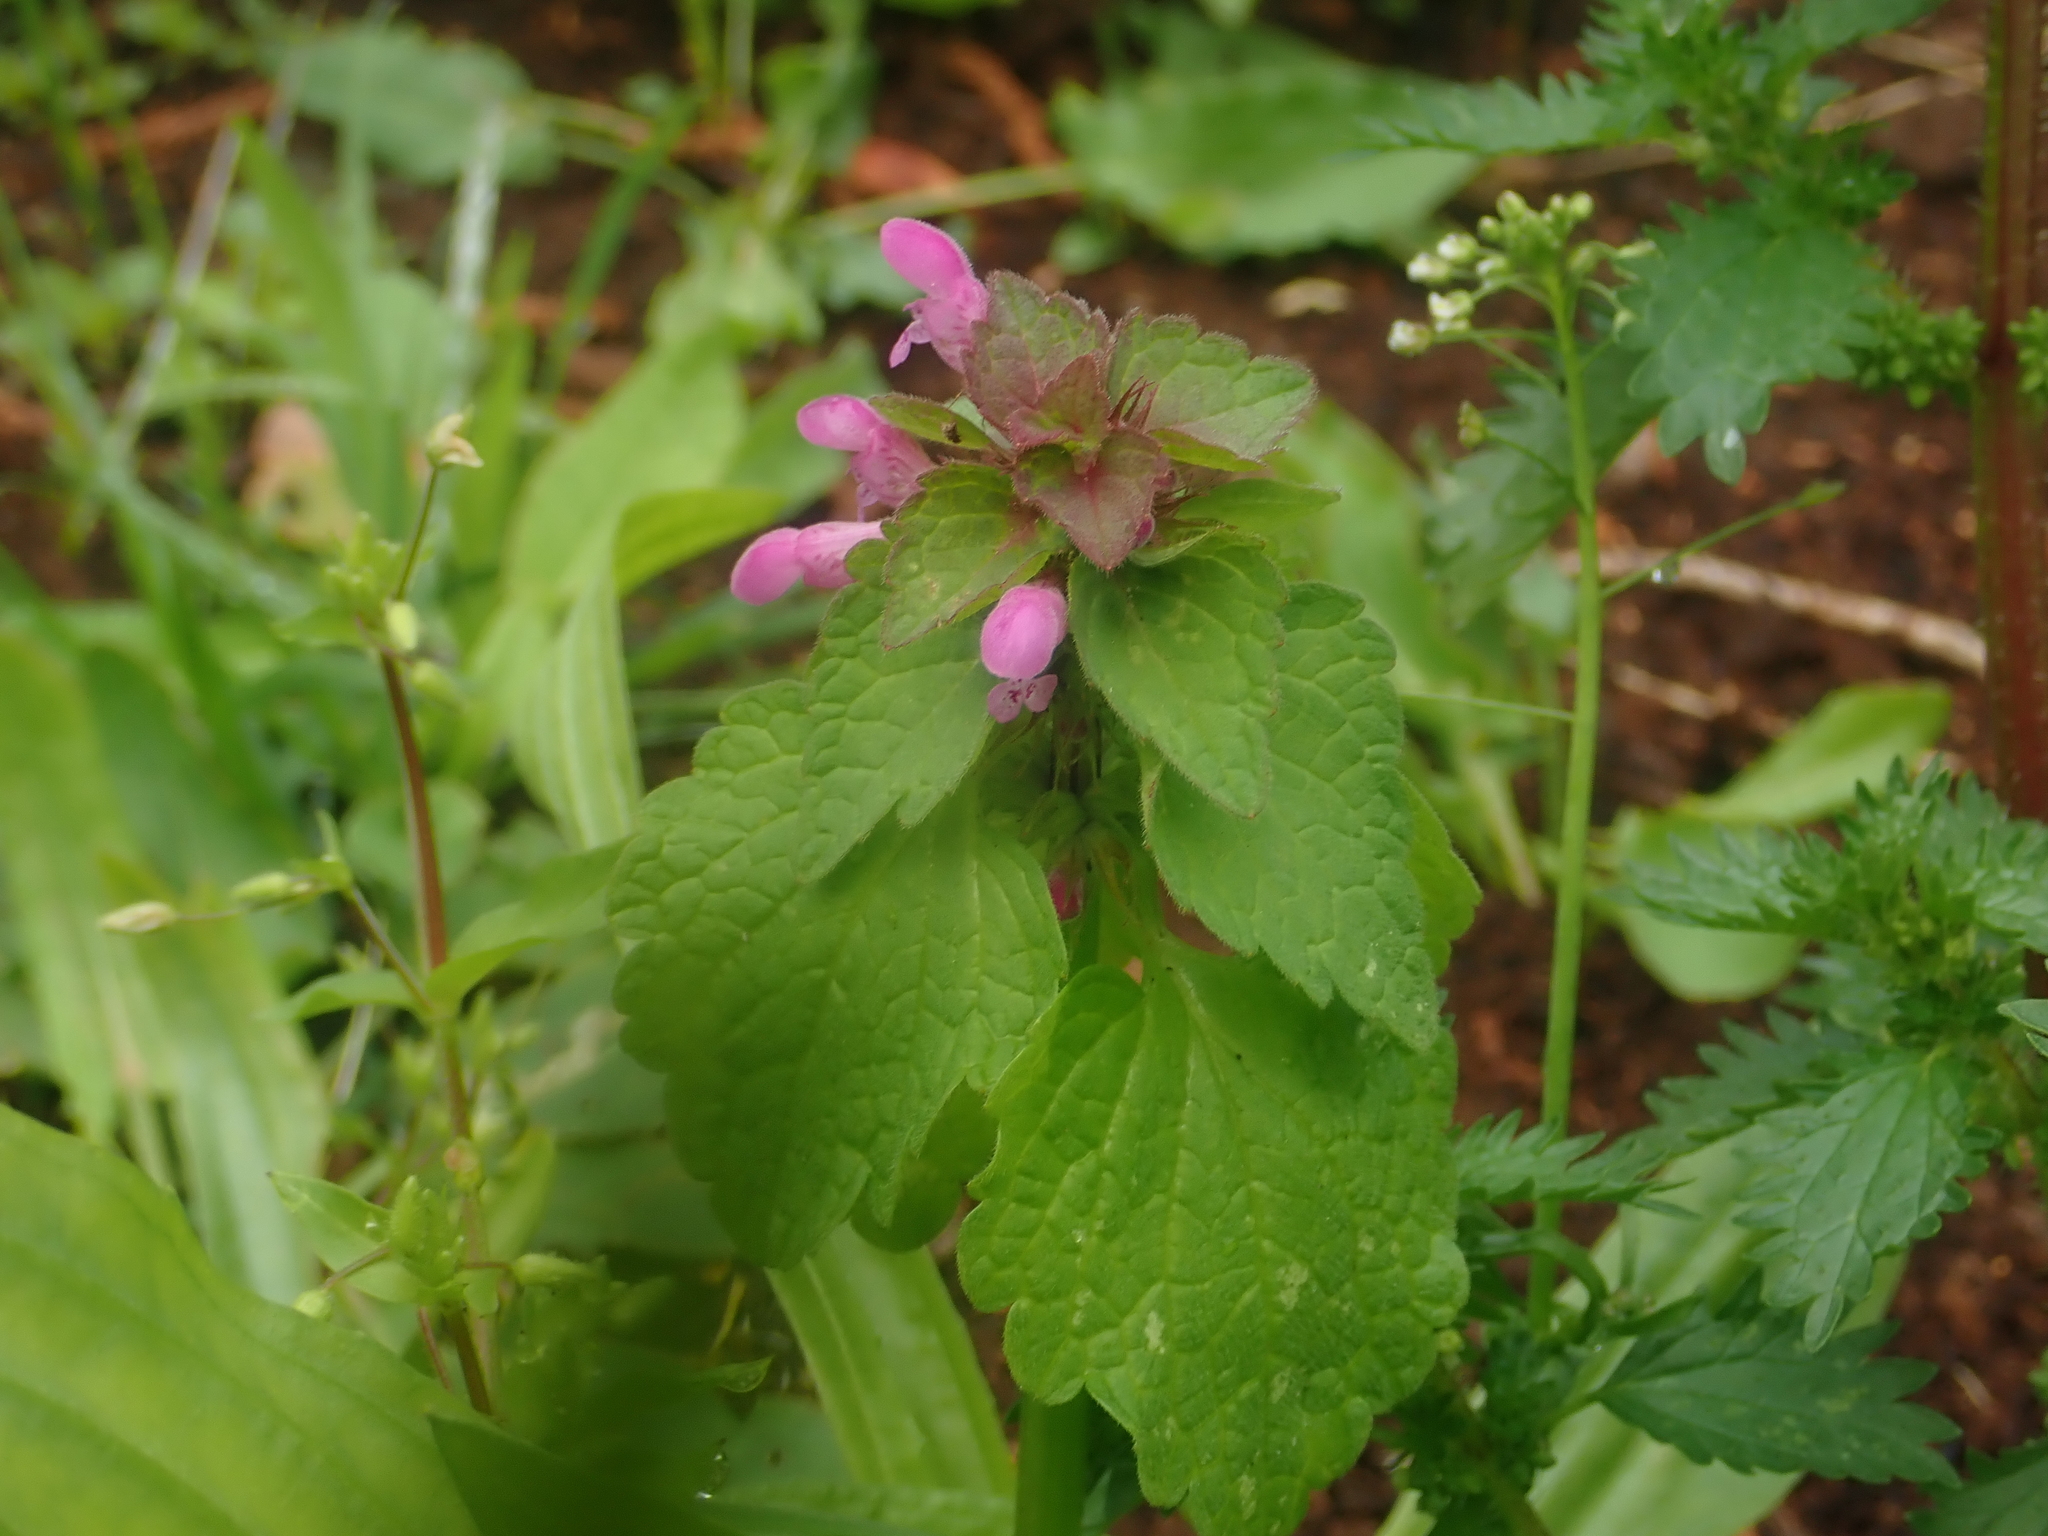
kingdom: Plantae
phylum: Tracheophyta
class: Magnoliopsida
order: Lamiales
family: Lamiaceae
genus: Lamium
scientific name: Lamium purpureum
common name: Red dead-nettle
